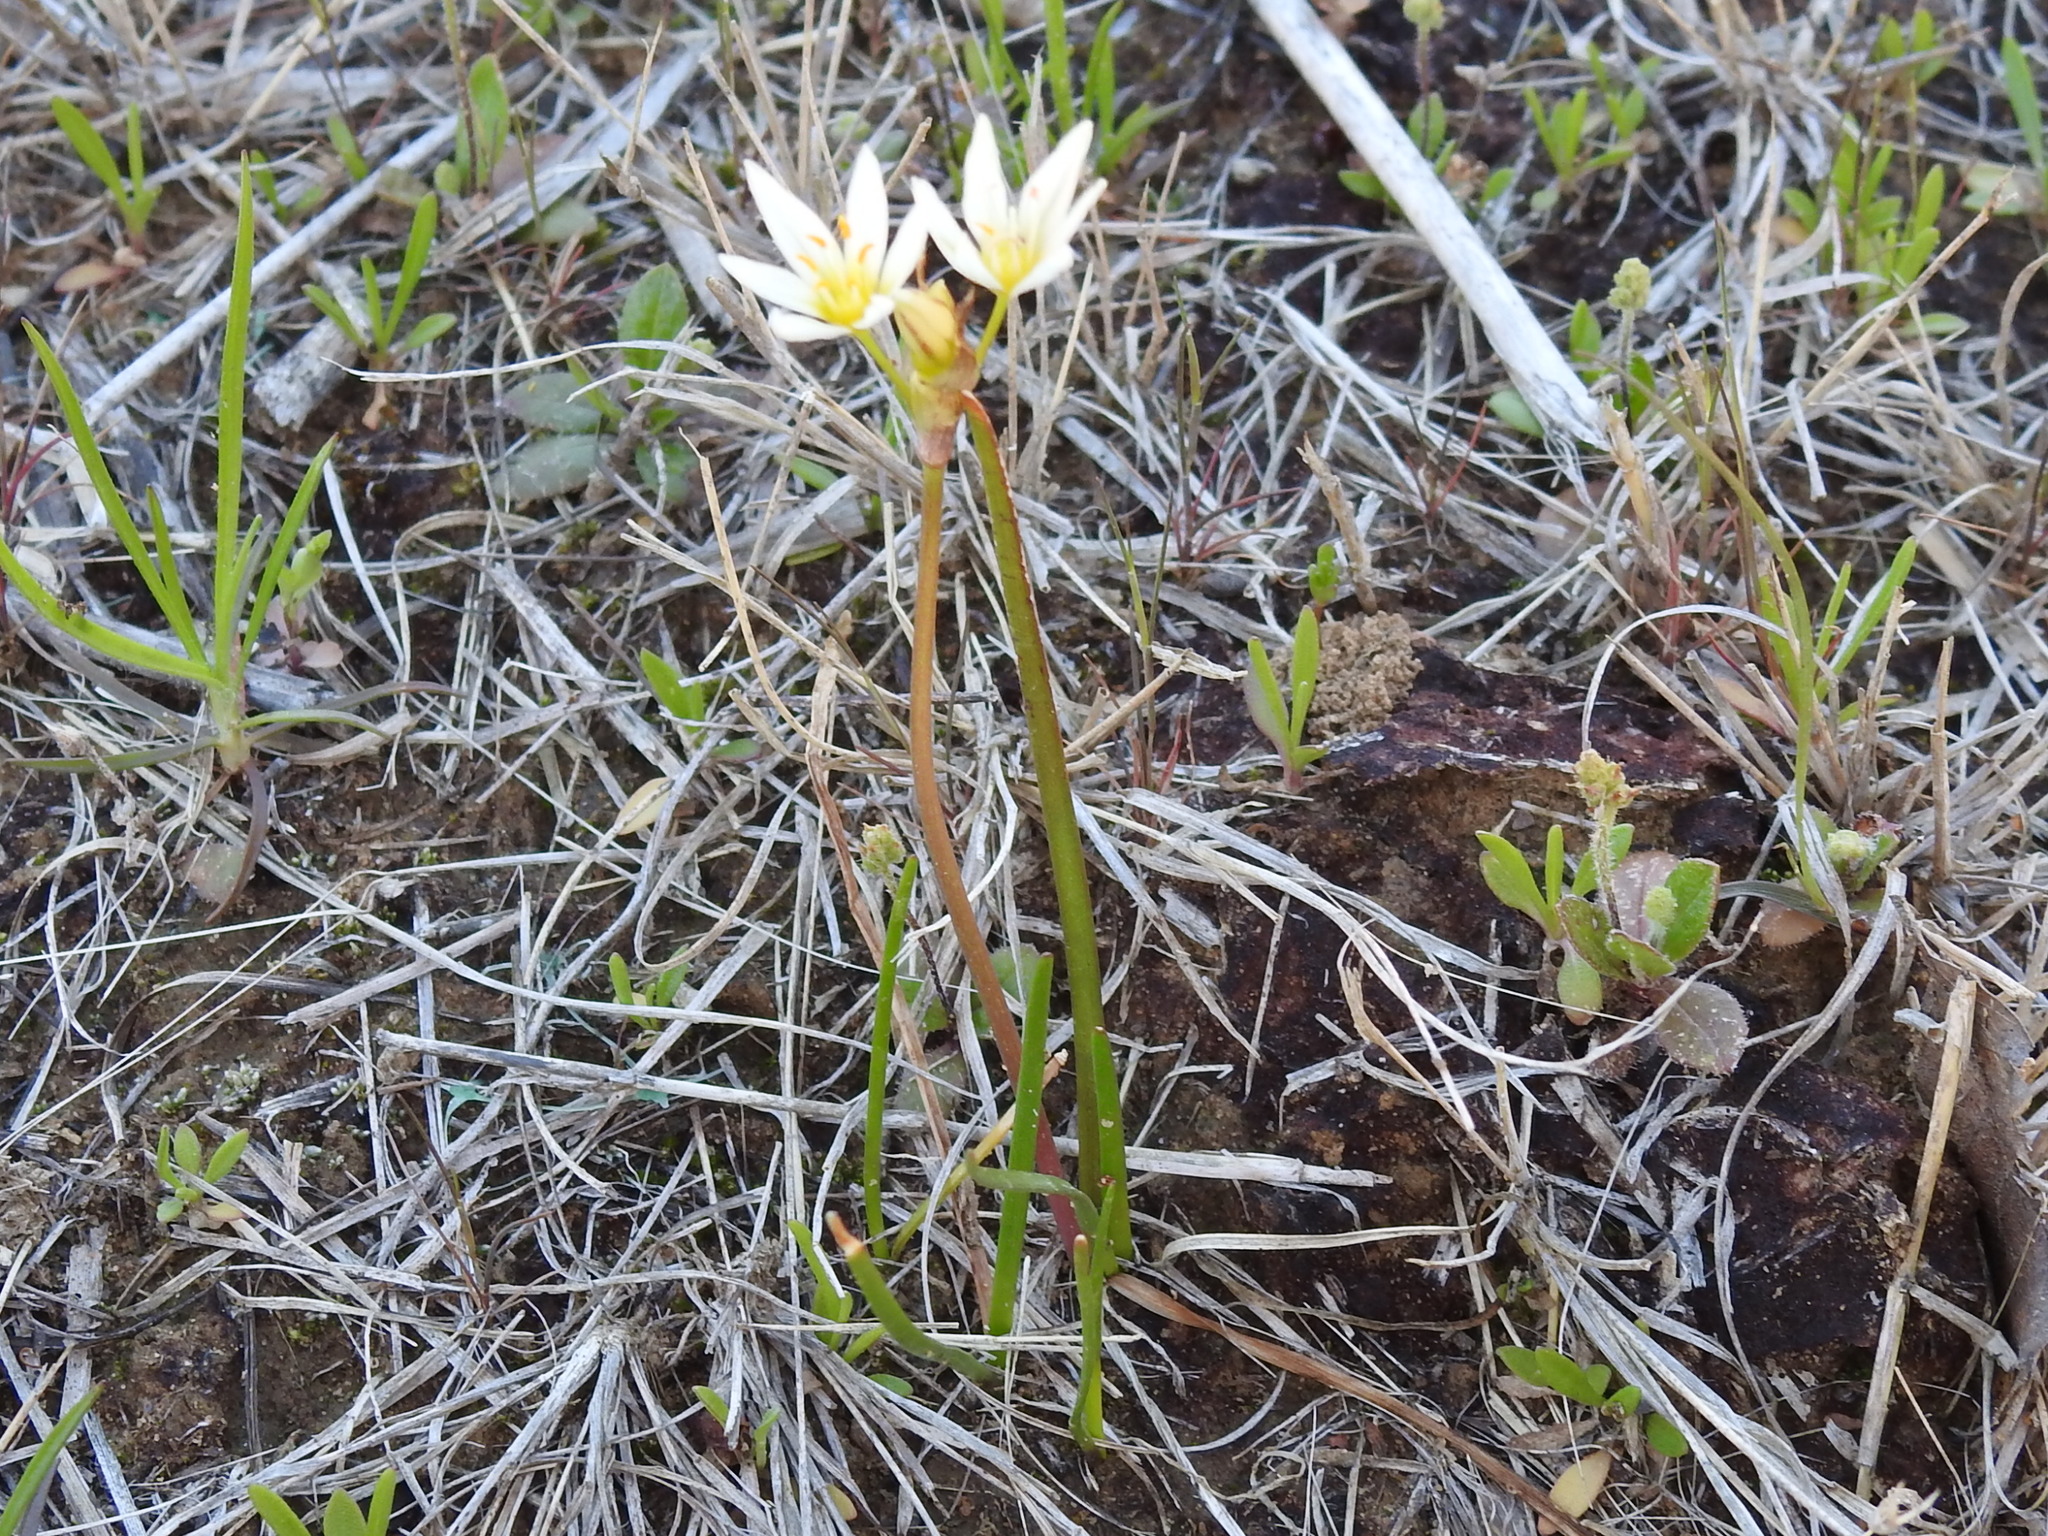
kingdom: Plantae
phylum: Tracheophyta
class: Liliopsida
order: Asparagales
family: Amaryllidaceae
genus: Nothoscordum
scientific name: Nothoscordum bivalve
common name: Crow-poison
